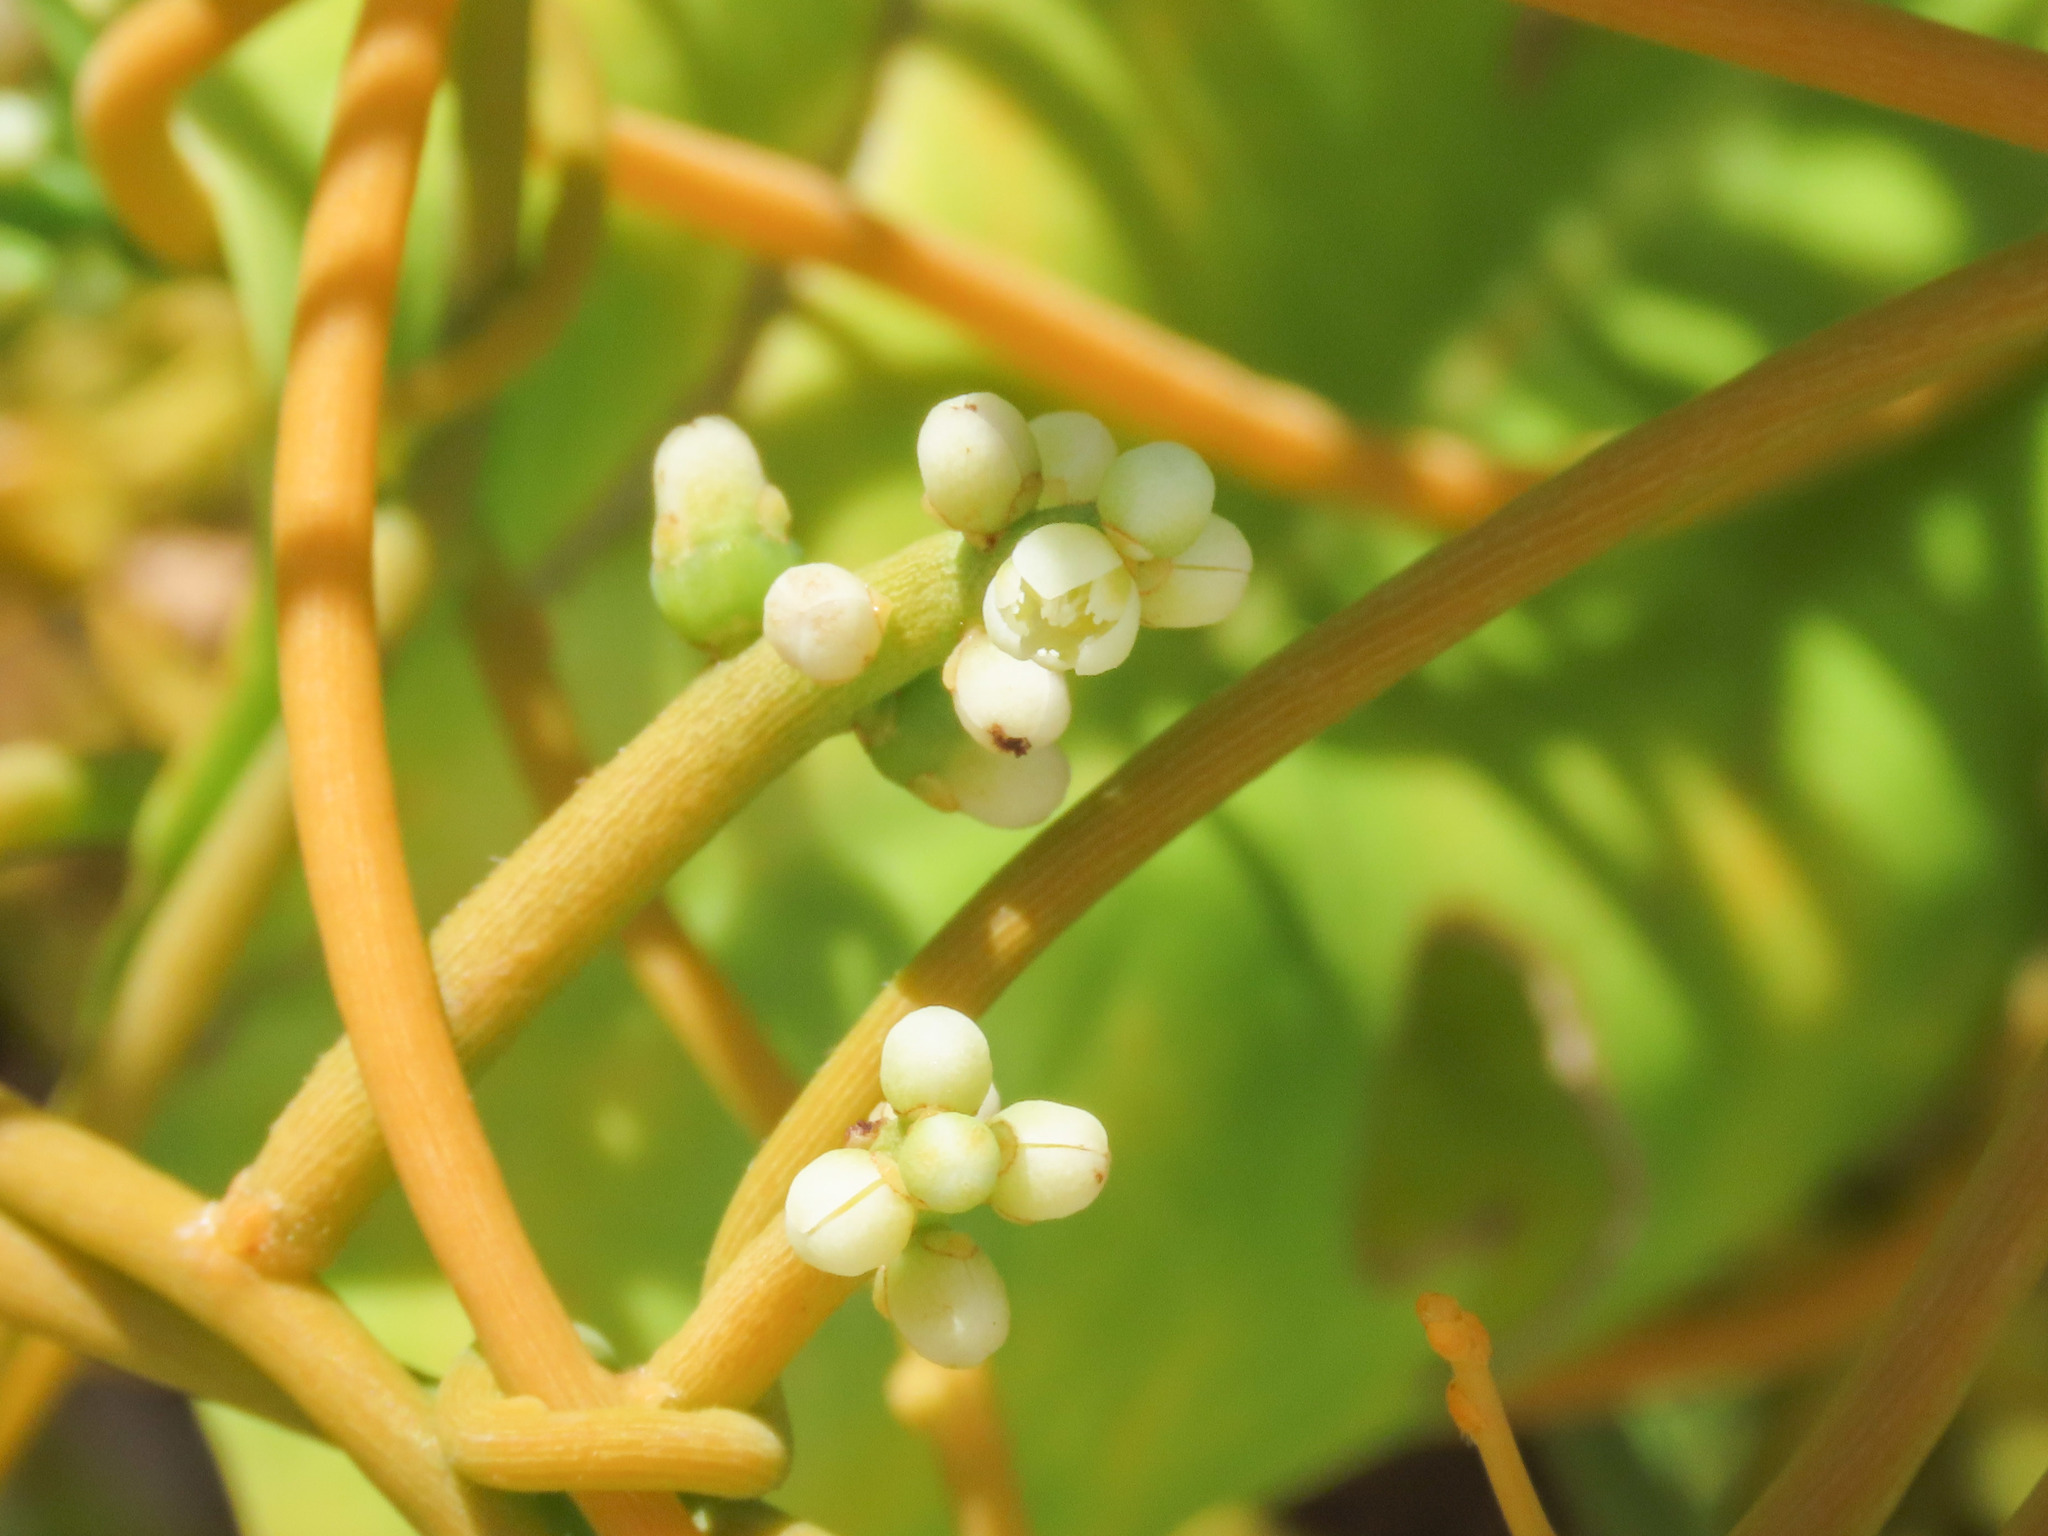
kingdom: Plantae
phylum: Tracheophyta
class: Magnoliopsida
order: Laurales
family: Lauraceae
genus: Cassytha
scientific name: Cassytha filiformis
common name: Dodder-laurel
